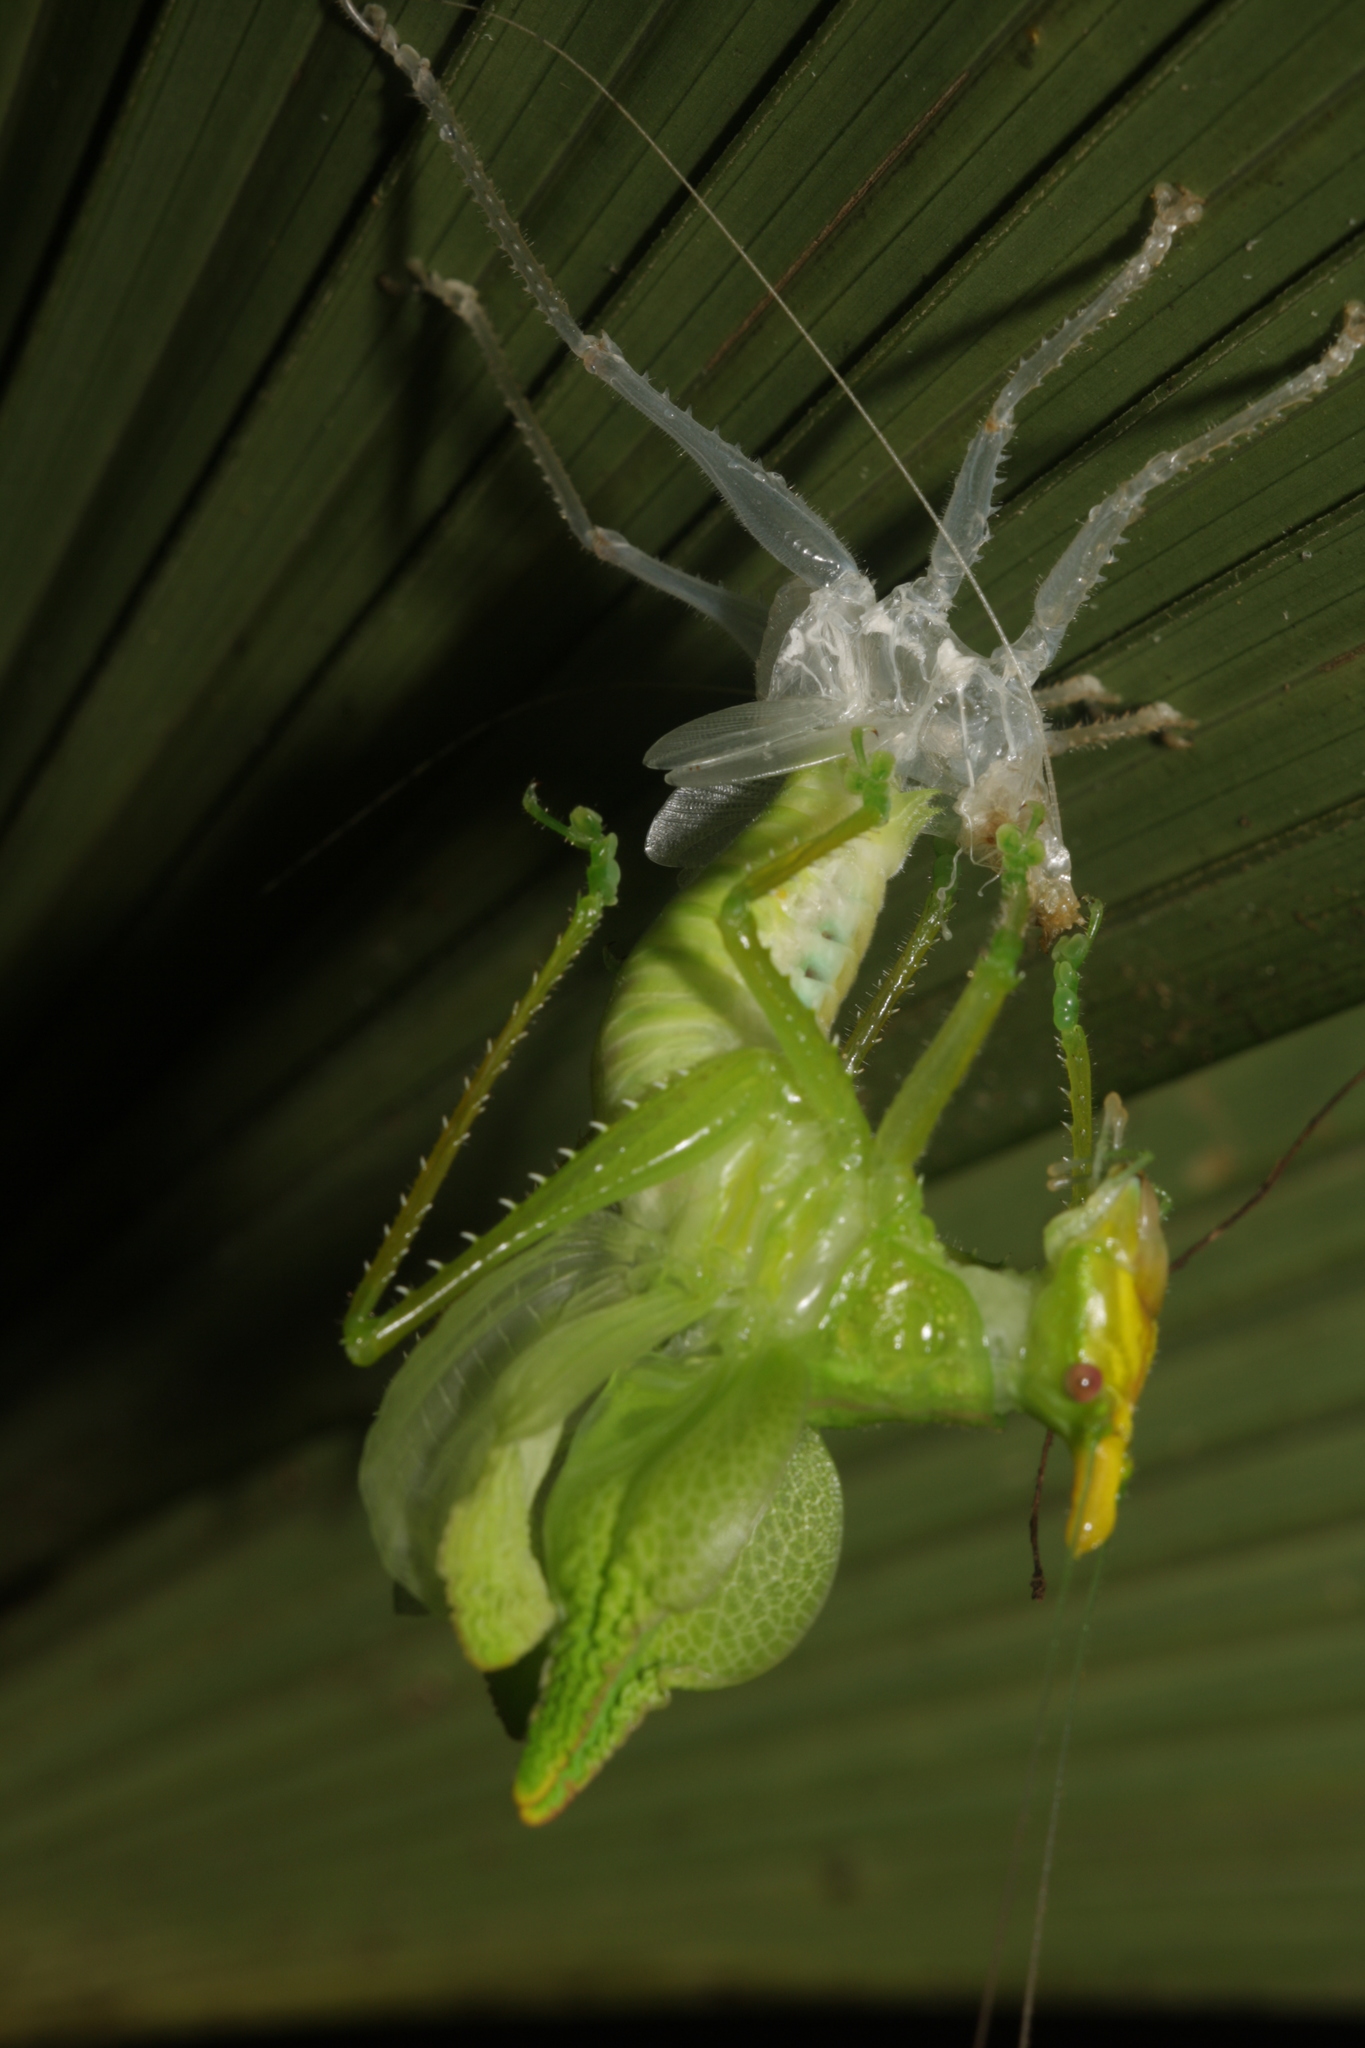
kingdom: Animalia
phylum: Arthropoda
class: Insecta
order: Orthoptera
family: Tettigoniidae
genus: Copiphora
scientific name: Copiphora cultricornis
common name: Yellow-faced spear bearer
